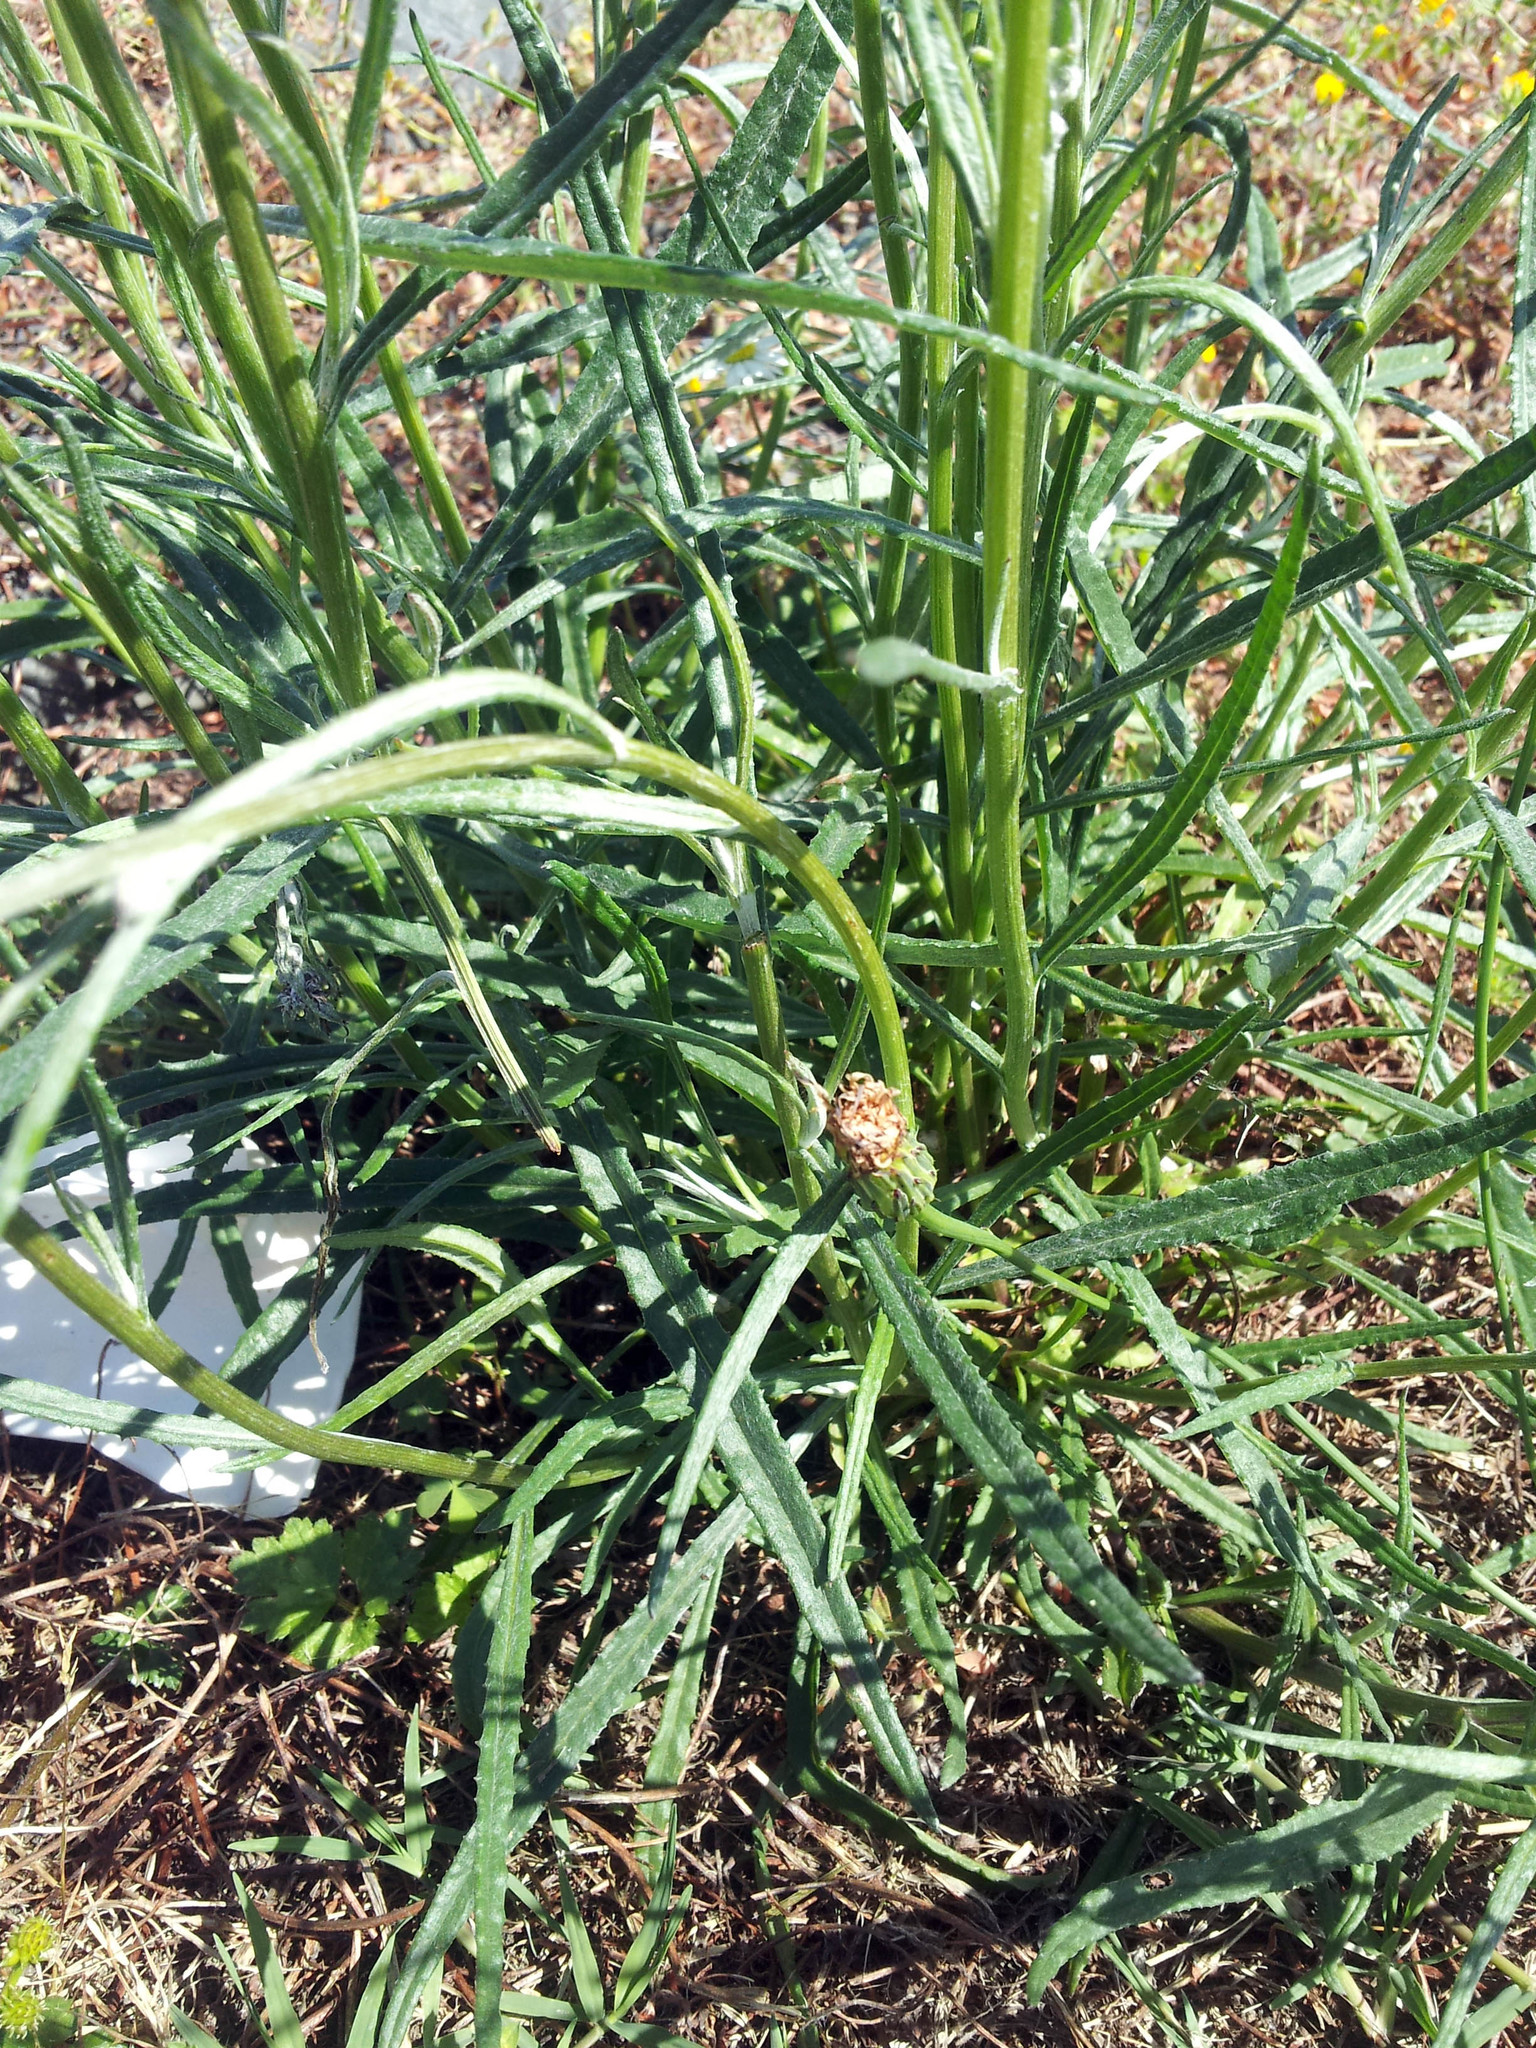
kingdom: Plantae
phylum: Tracheophyta
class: Magnoliopsida
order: Asterales
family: Asteraceae
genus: Senecio
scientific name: Senecio quadridentatus
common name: Cotton fireweed
